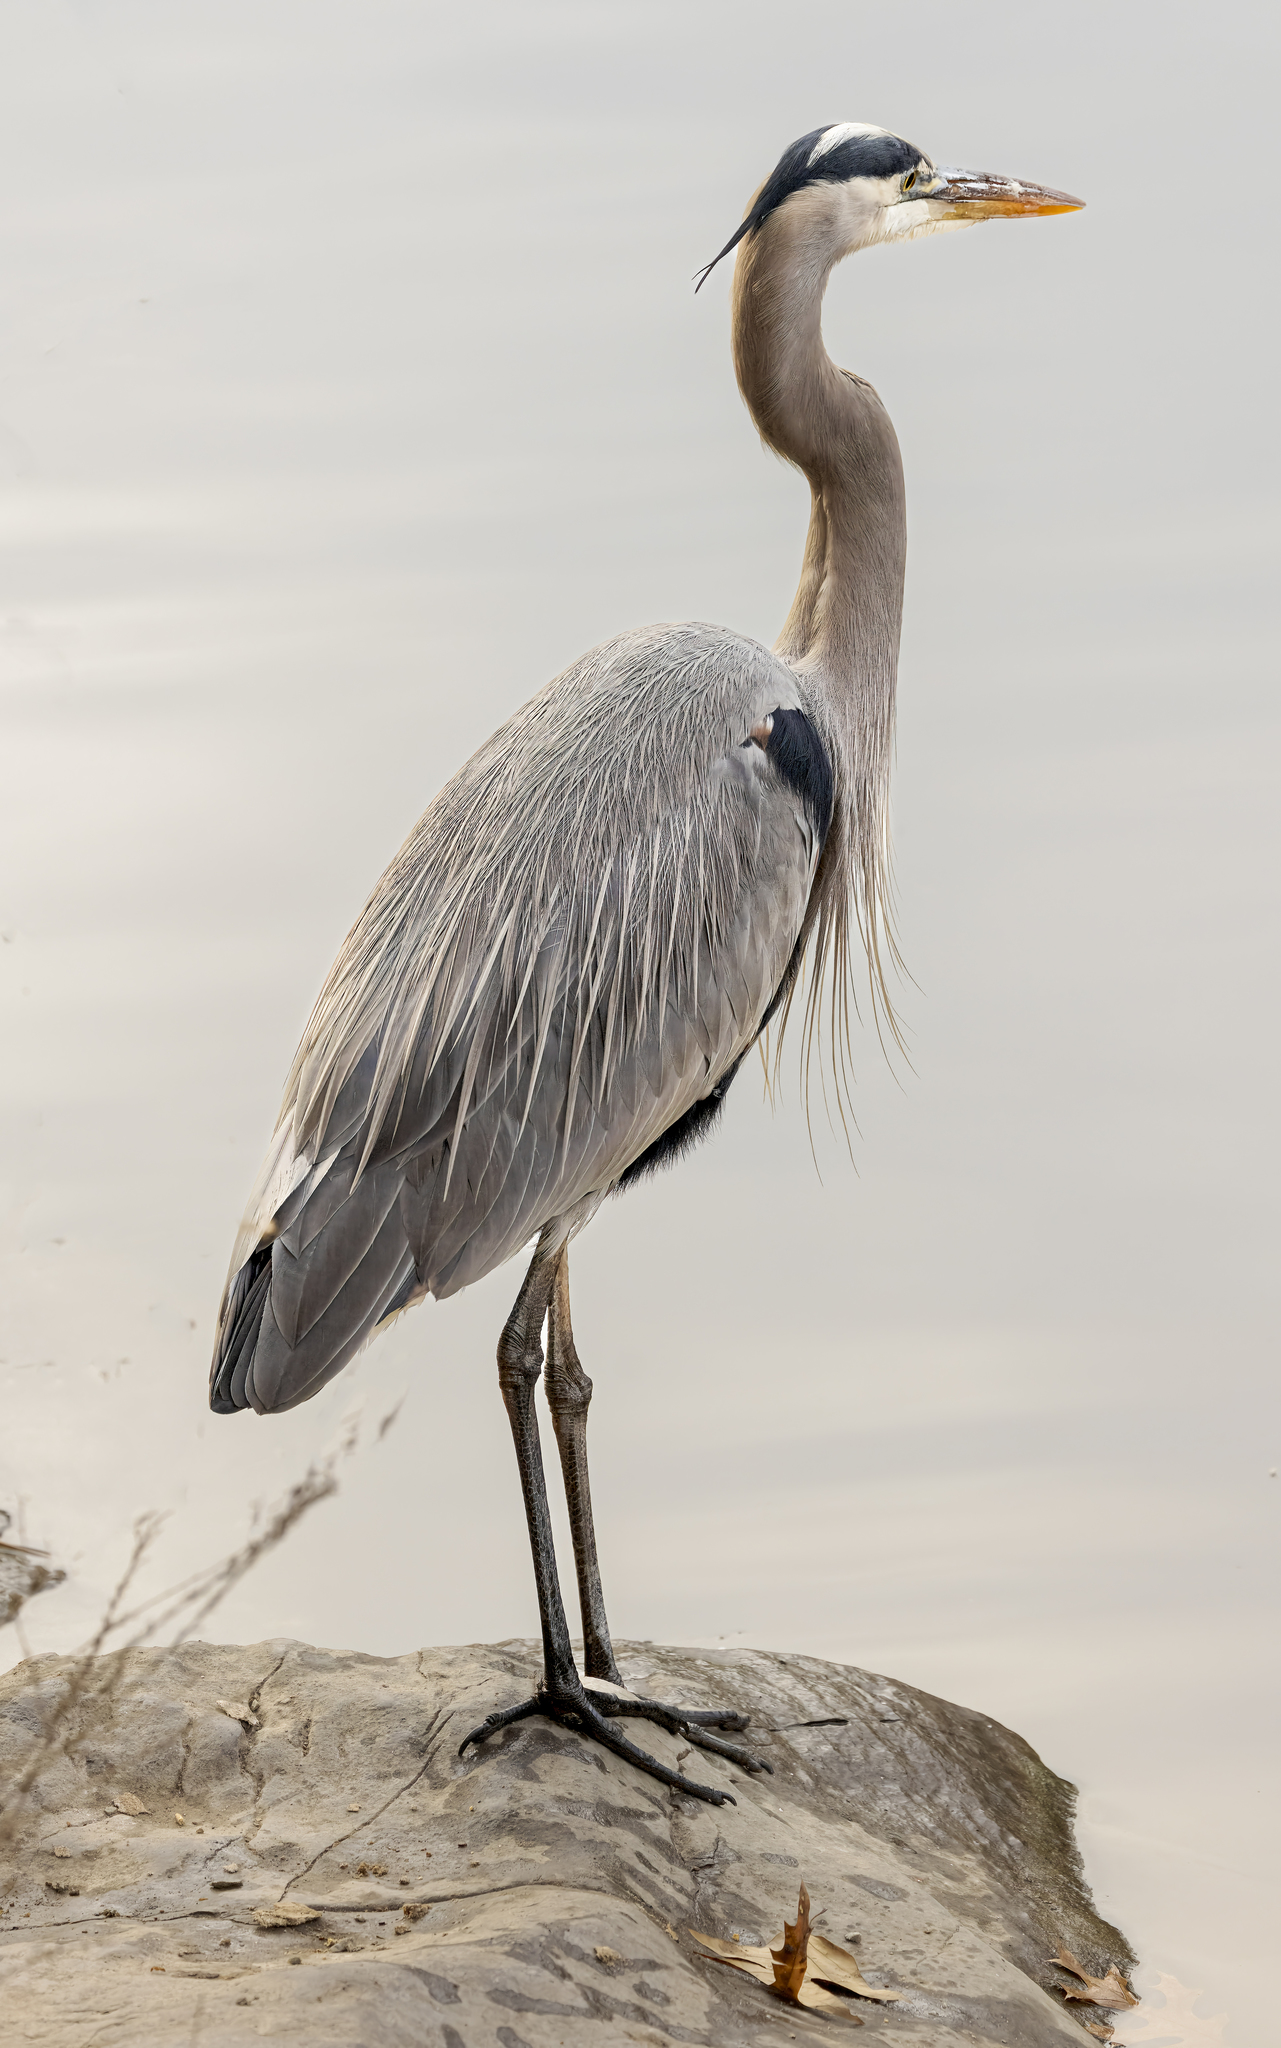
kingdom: Animalia
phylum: Chordata
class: Aves
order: Pelecaniformes
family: Ardeidae
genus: Ardea
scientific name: Ardea herodias
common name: Great blue heron
